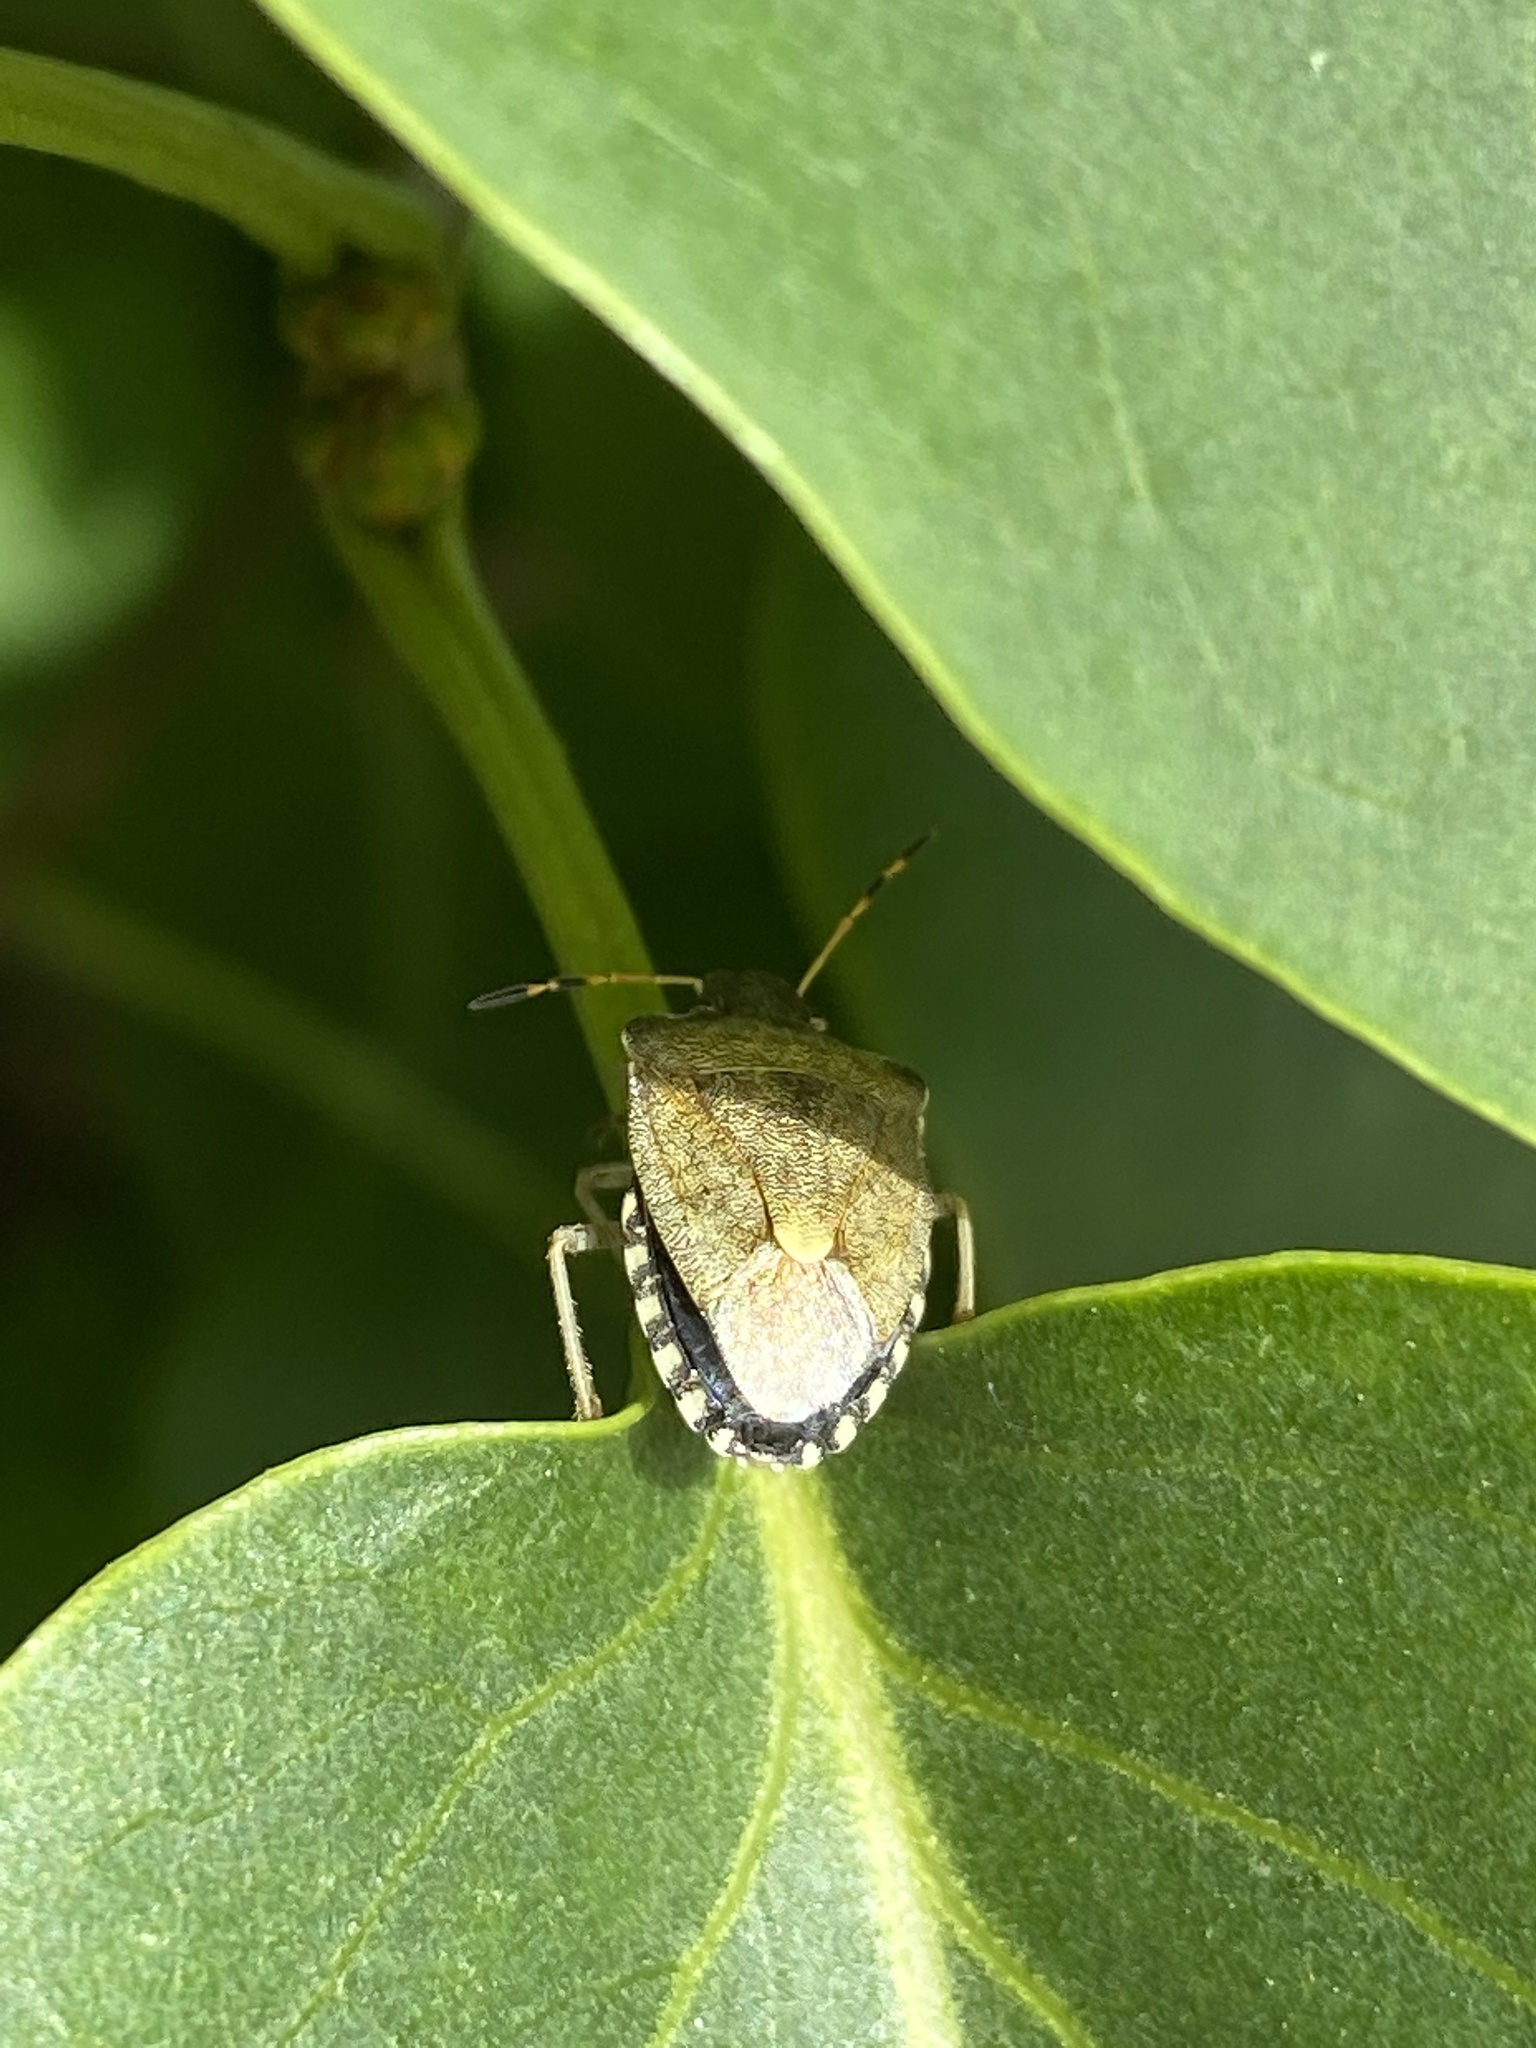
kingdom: Animalia
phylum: Arthropoda
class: Insecta
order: Hemiptera
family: Pentatomidae
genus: Holcostethus
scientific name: Holcostethus strictus
